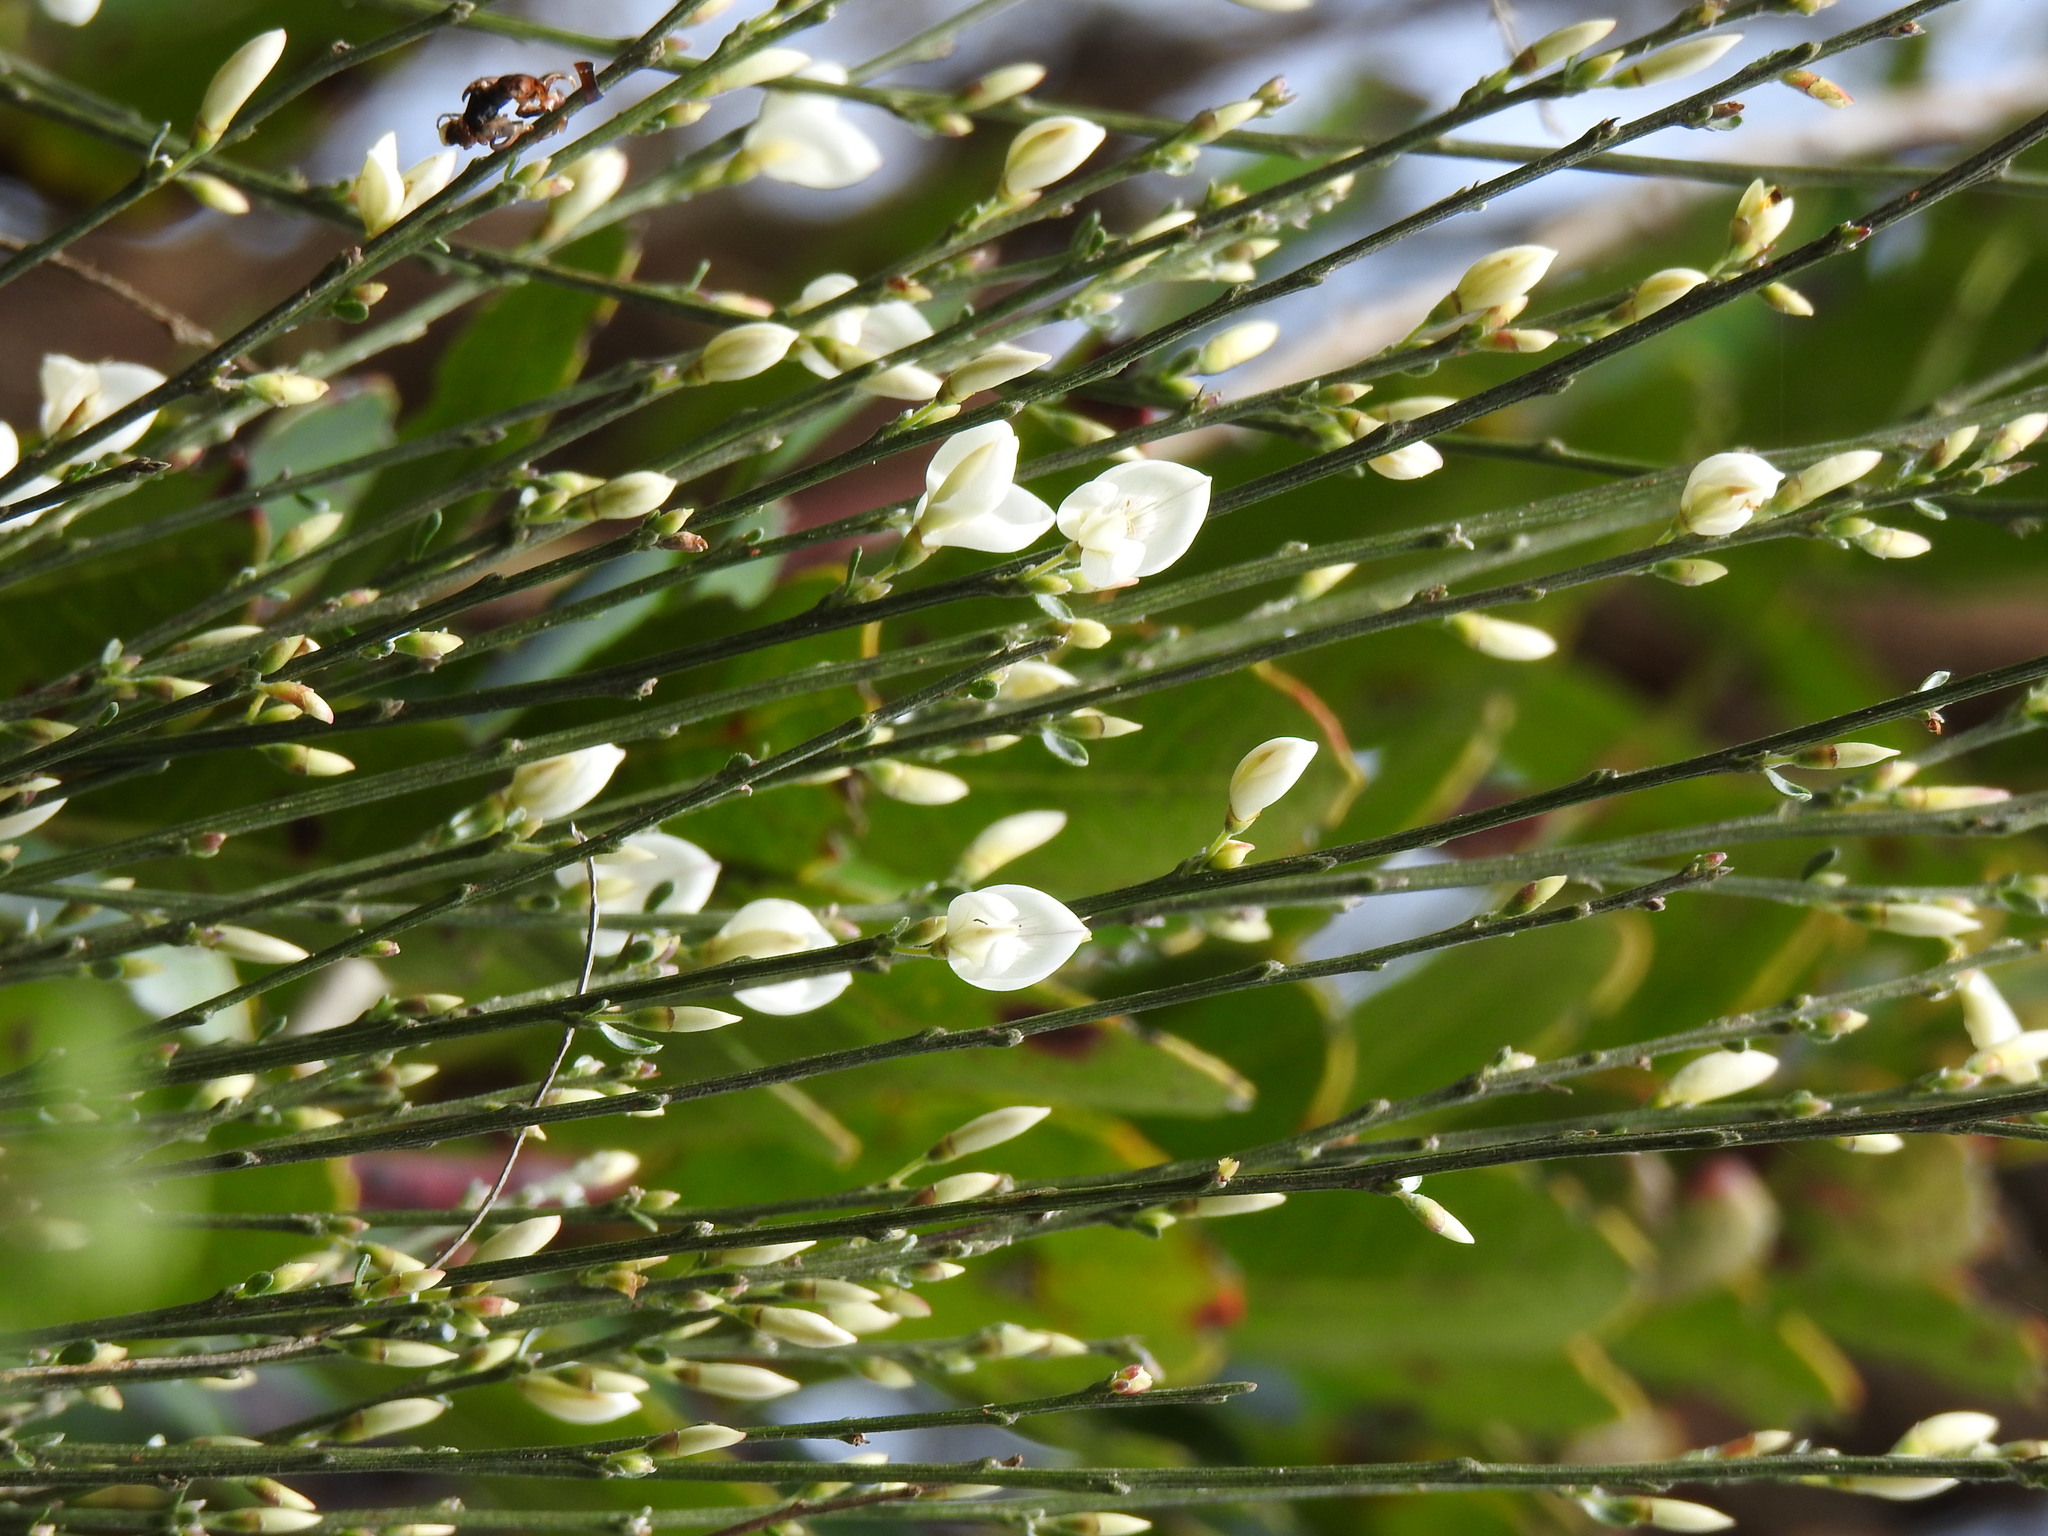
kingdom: Plantae
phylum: Tracheophyta
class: Magnoliopsida
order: Fabales
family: Fabaceae
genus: Cytisus
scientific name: Cytisus multiflorus
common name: White broom
